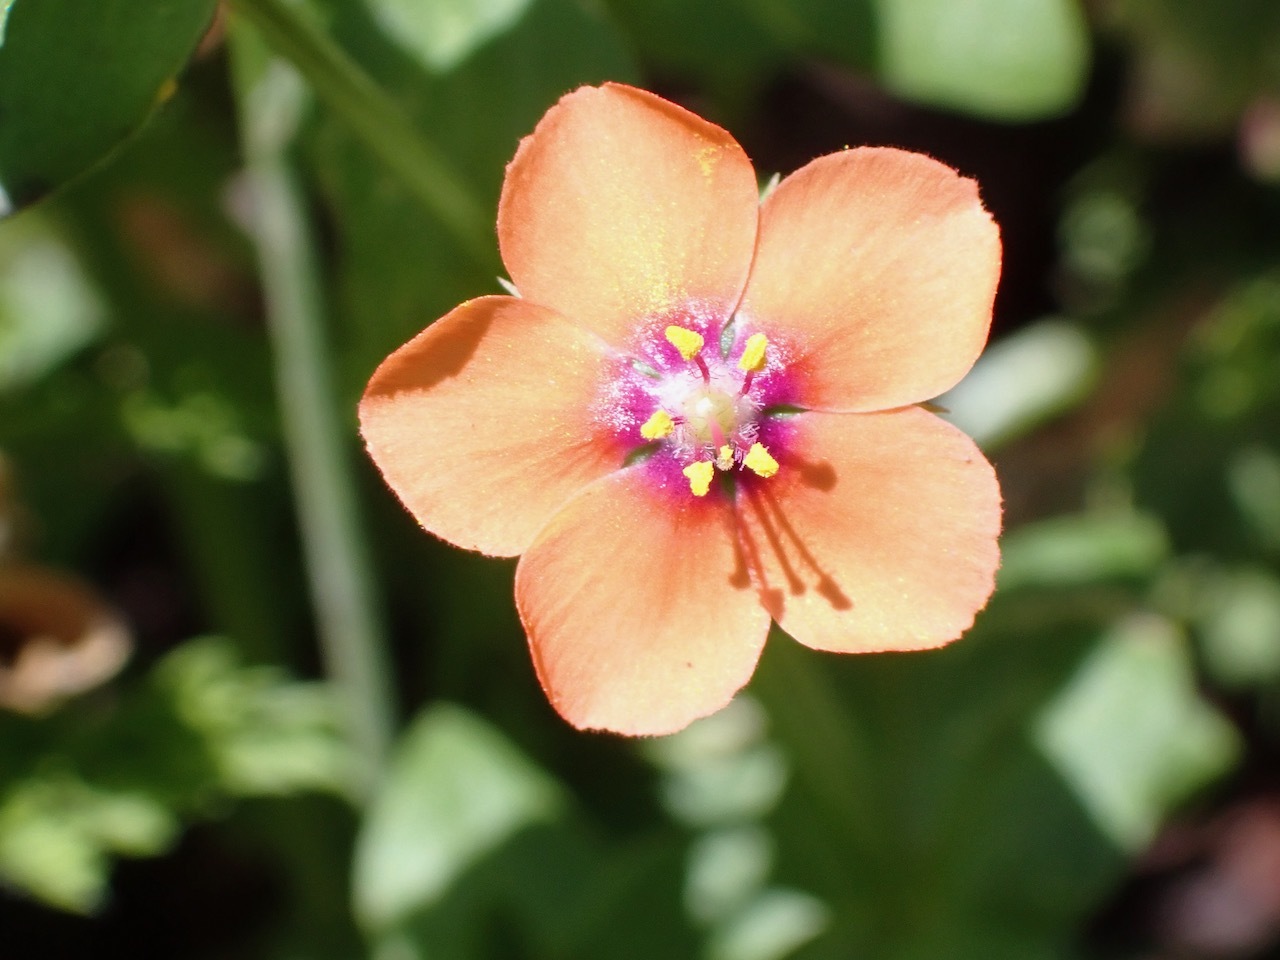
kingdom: Plantae
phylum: Tracheophyta
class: Magnoliopsida
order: Ericales
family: Primulaceae
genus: Lysimachia
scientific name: Lysimachia arvensis
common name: Scarlet pimpernel
